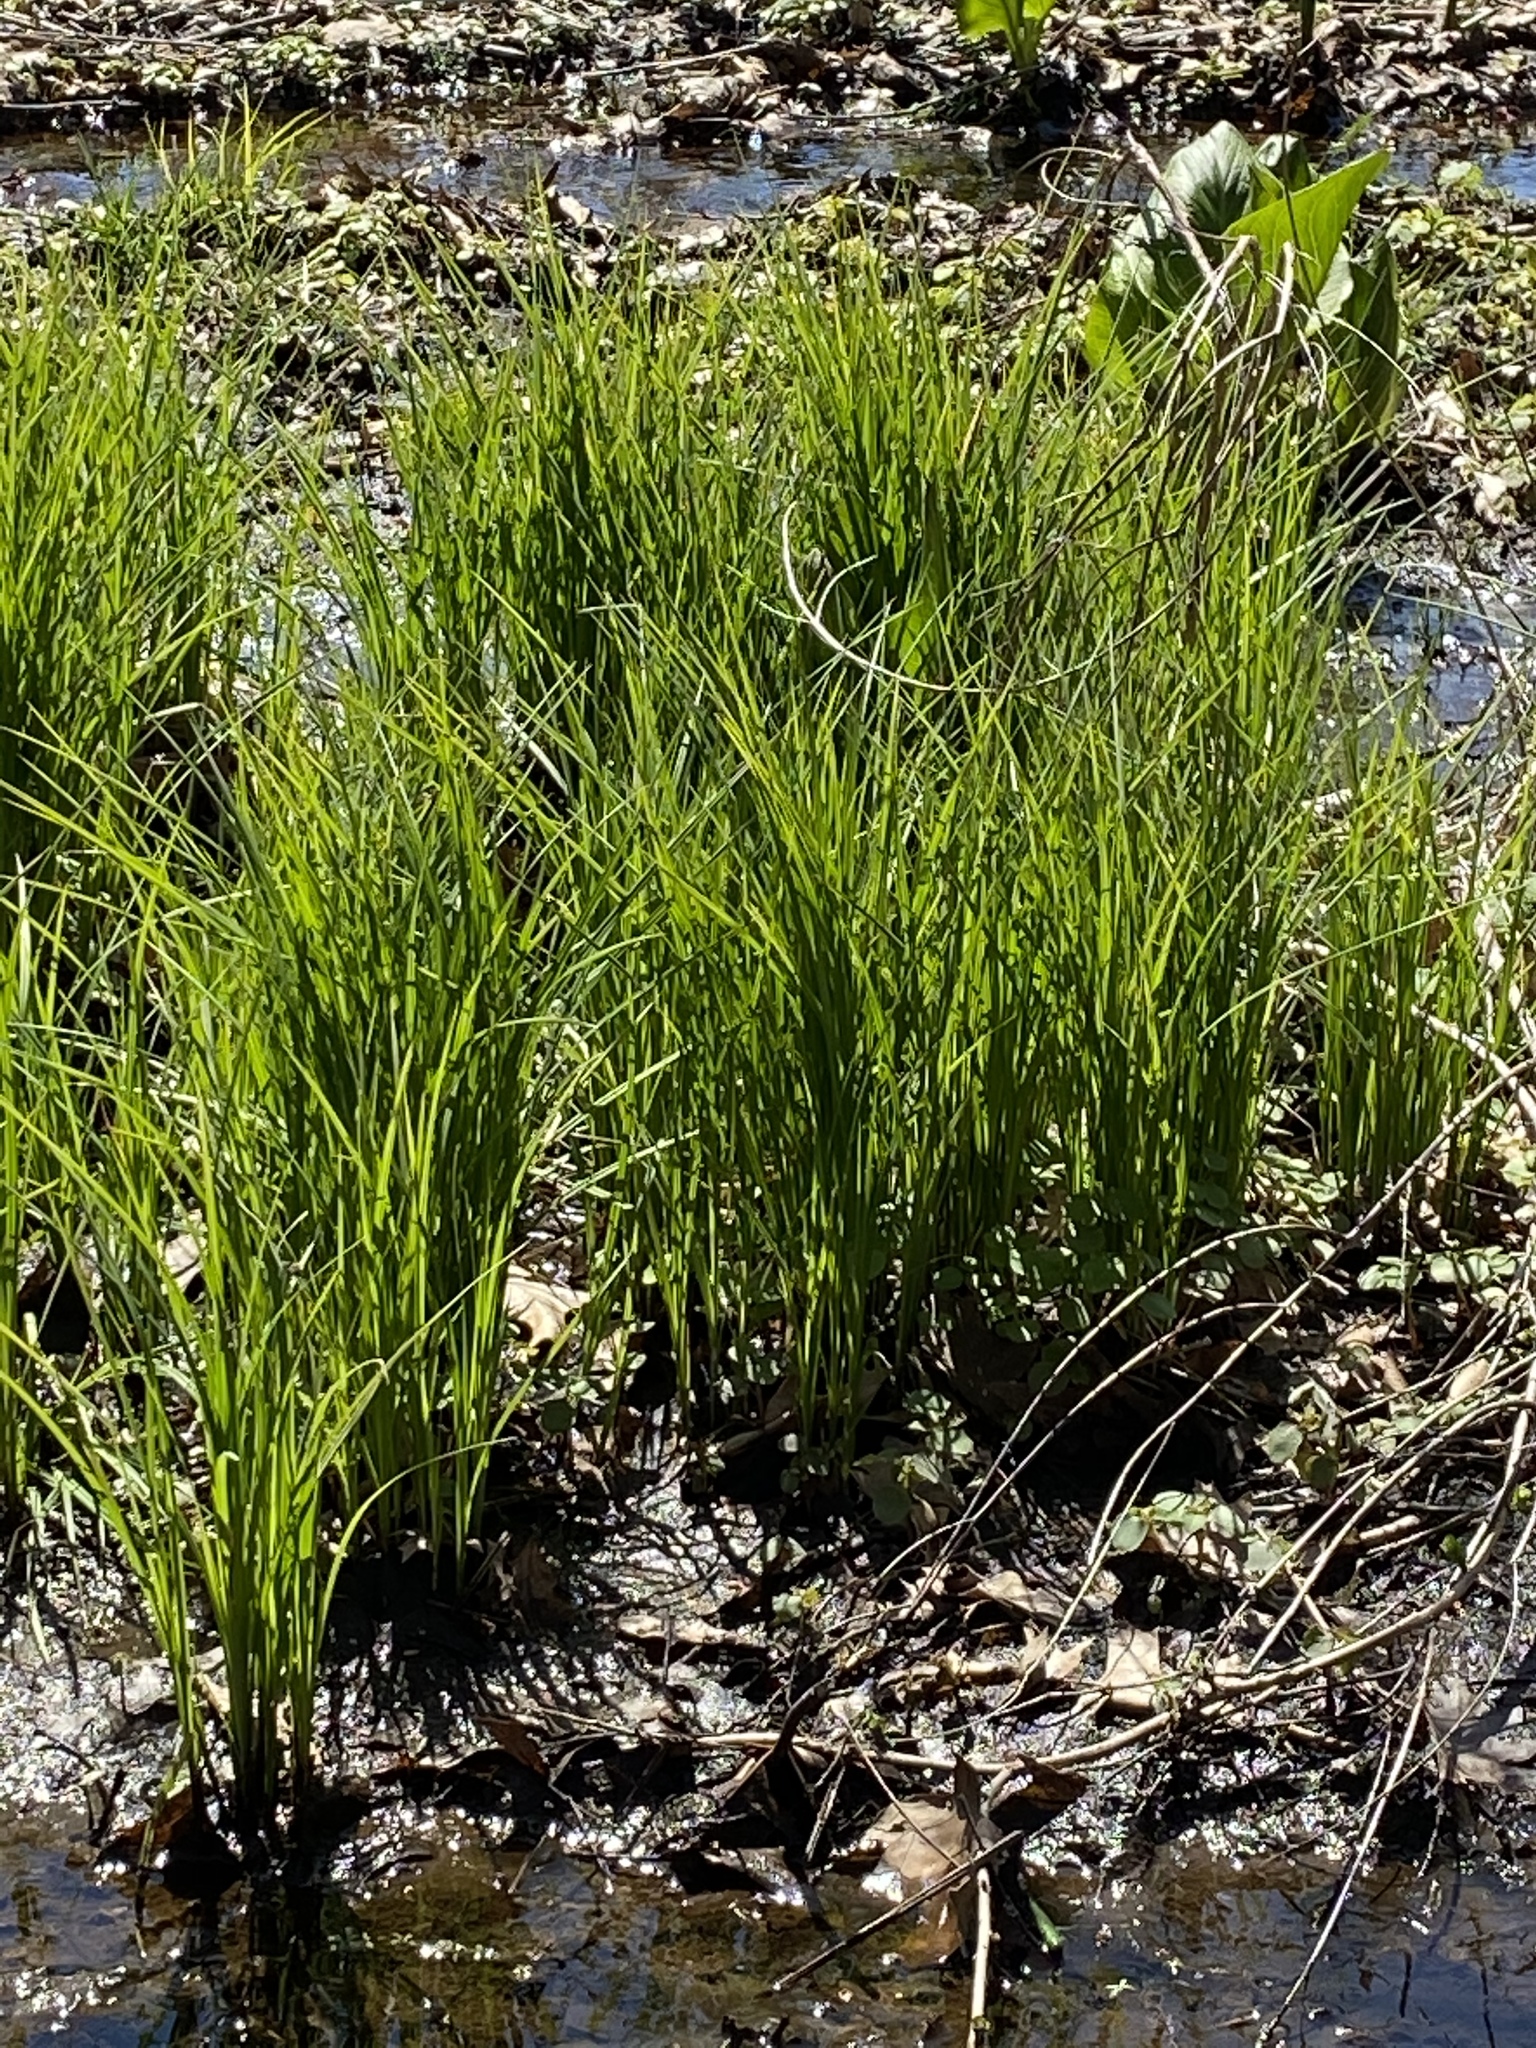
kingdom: Plantae
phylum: Tracheophyta
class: Liliopsida
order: Poales
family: Cyperaceae
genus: Carex
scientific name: Carex stricta
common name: Hummock sedge
